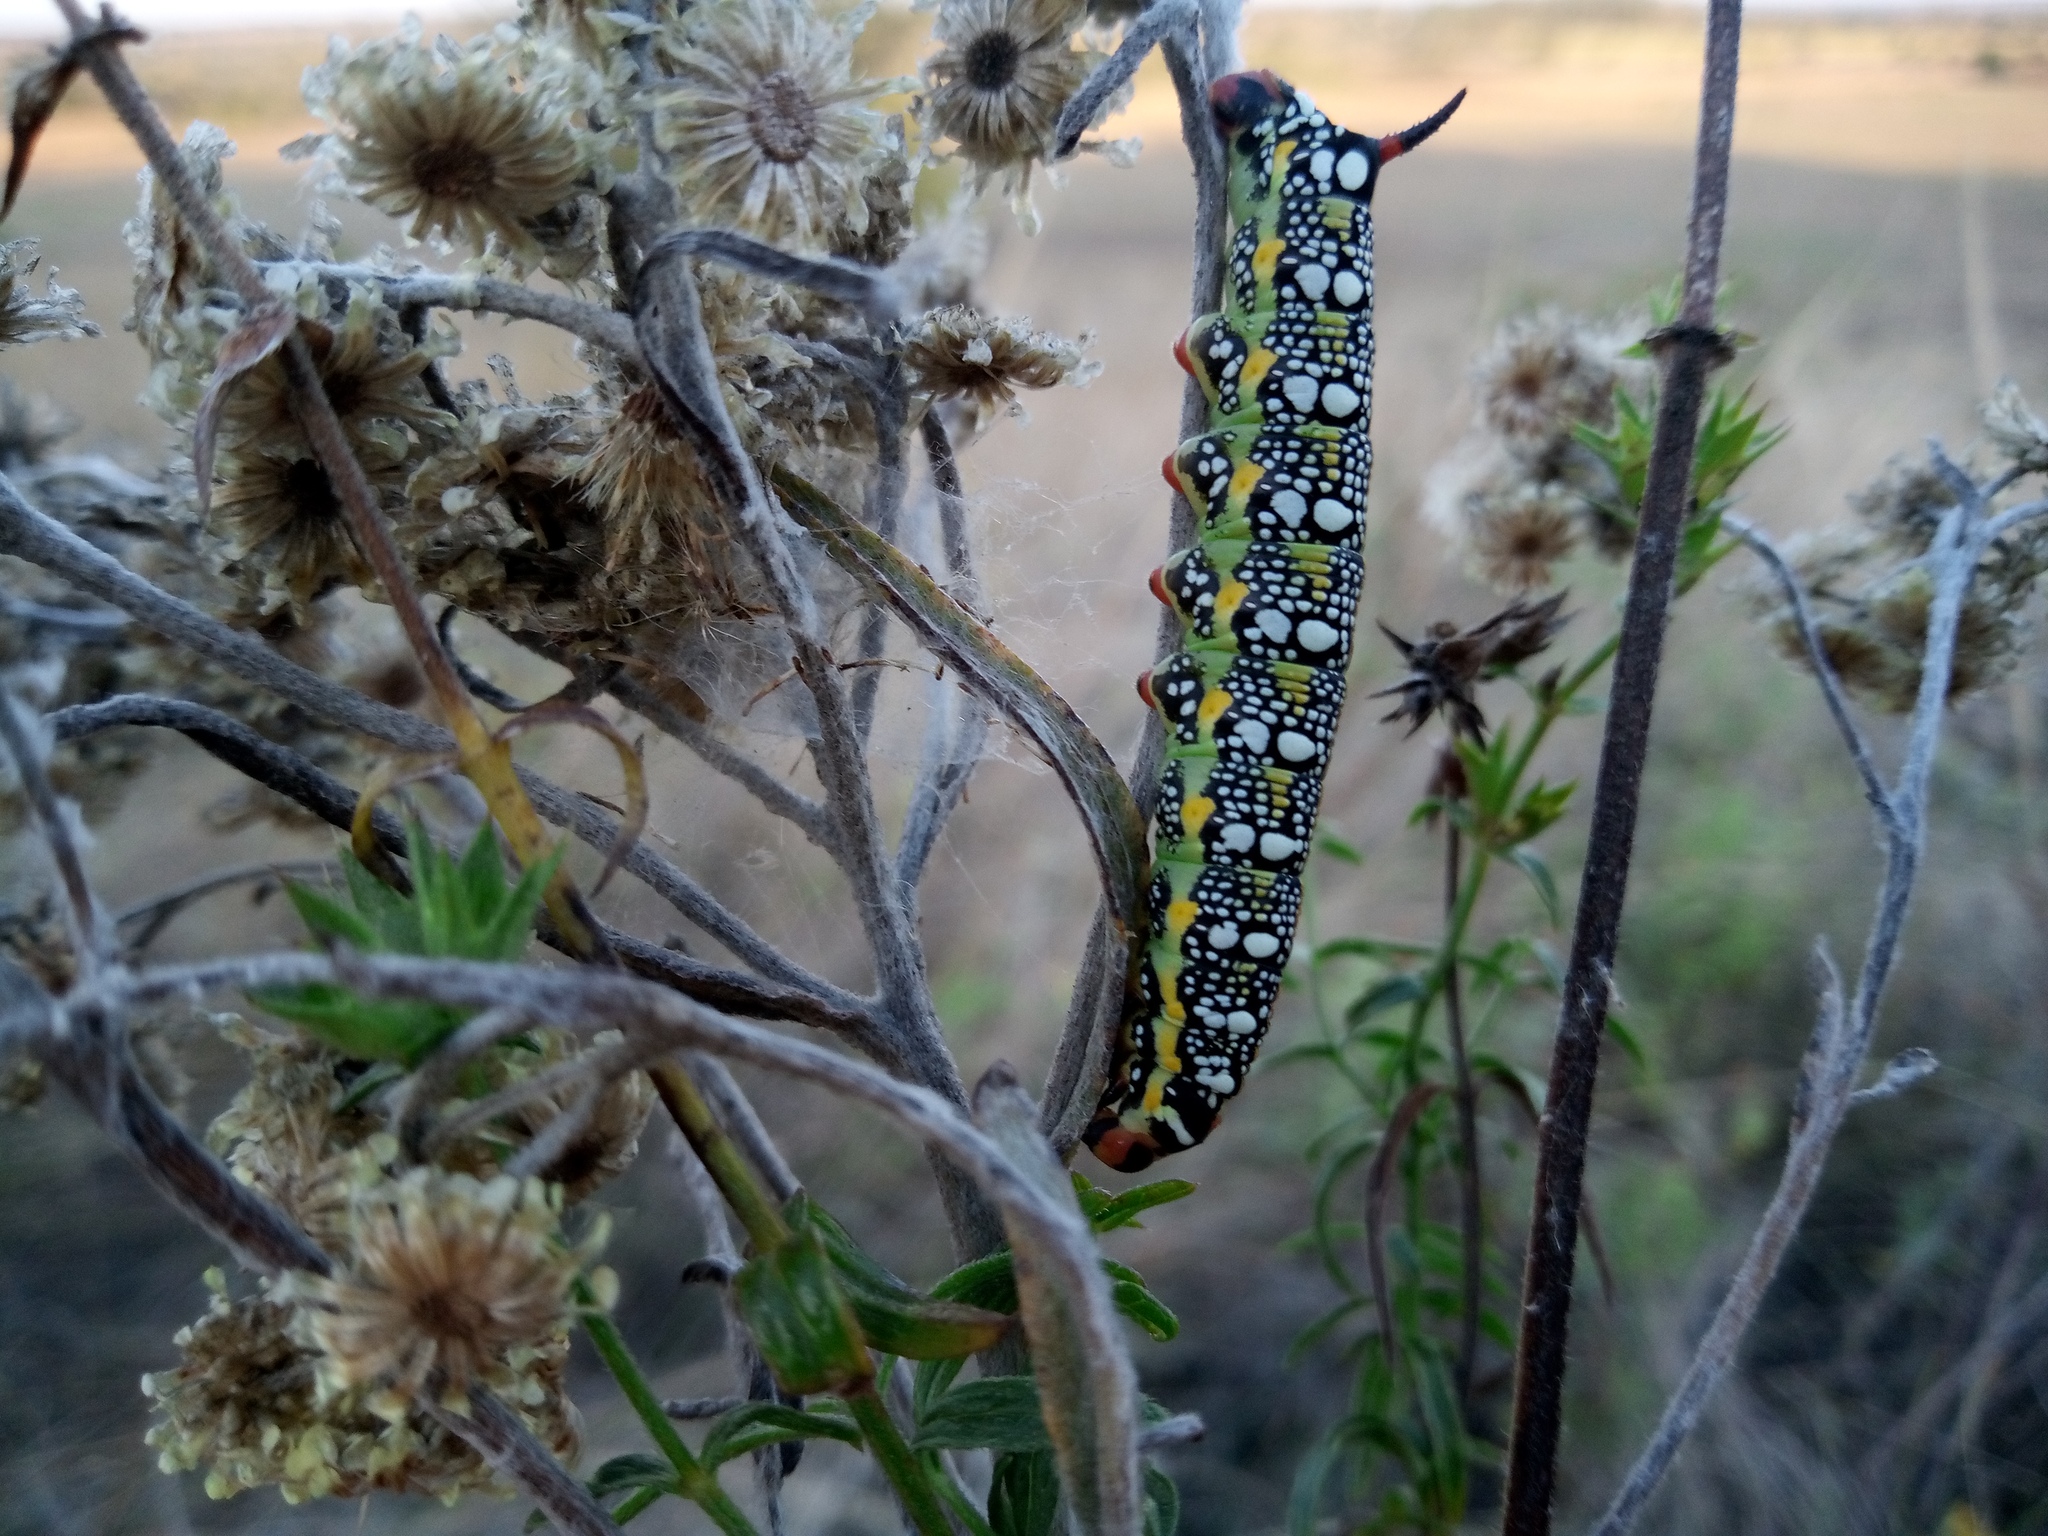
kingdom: Animalia
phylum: Arthropoda
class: Insecta
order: Lepidoptera
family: Sphingidae
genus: Hyles
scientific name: Hyles euphorbiae
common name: Spurge hawk-moth
